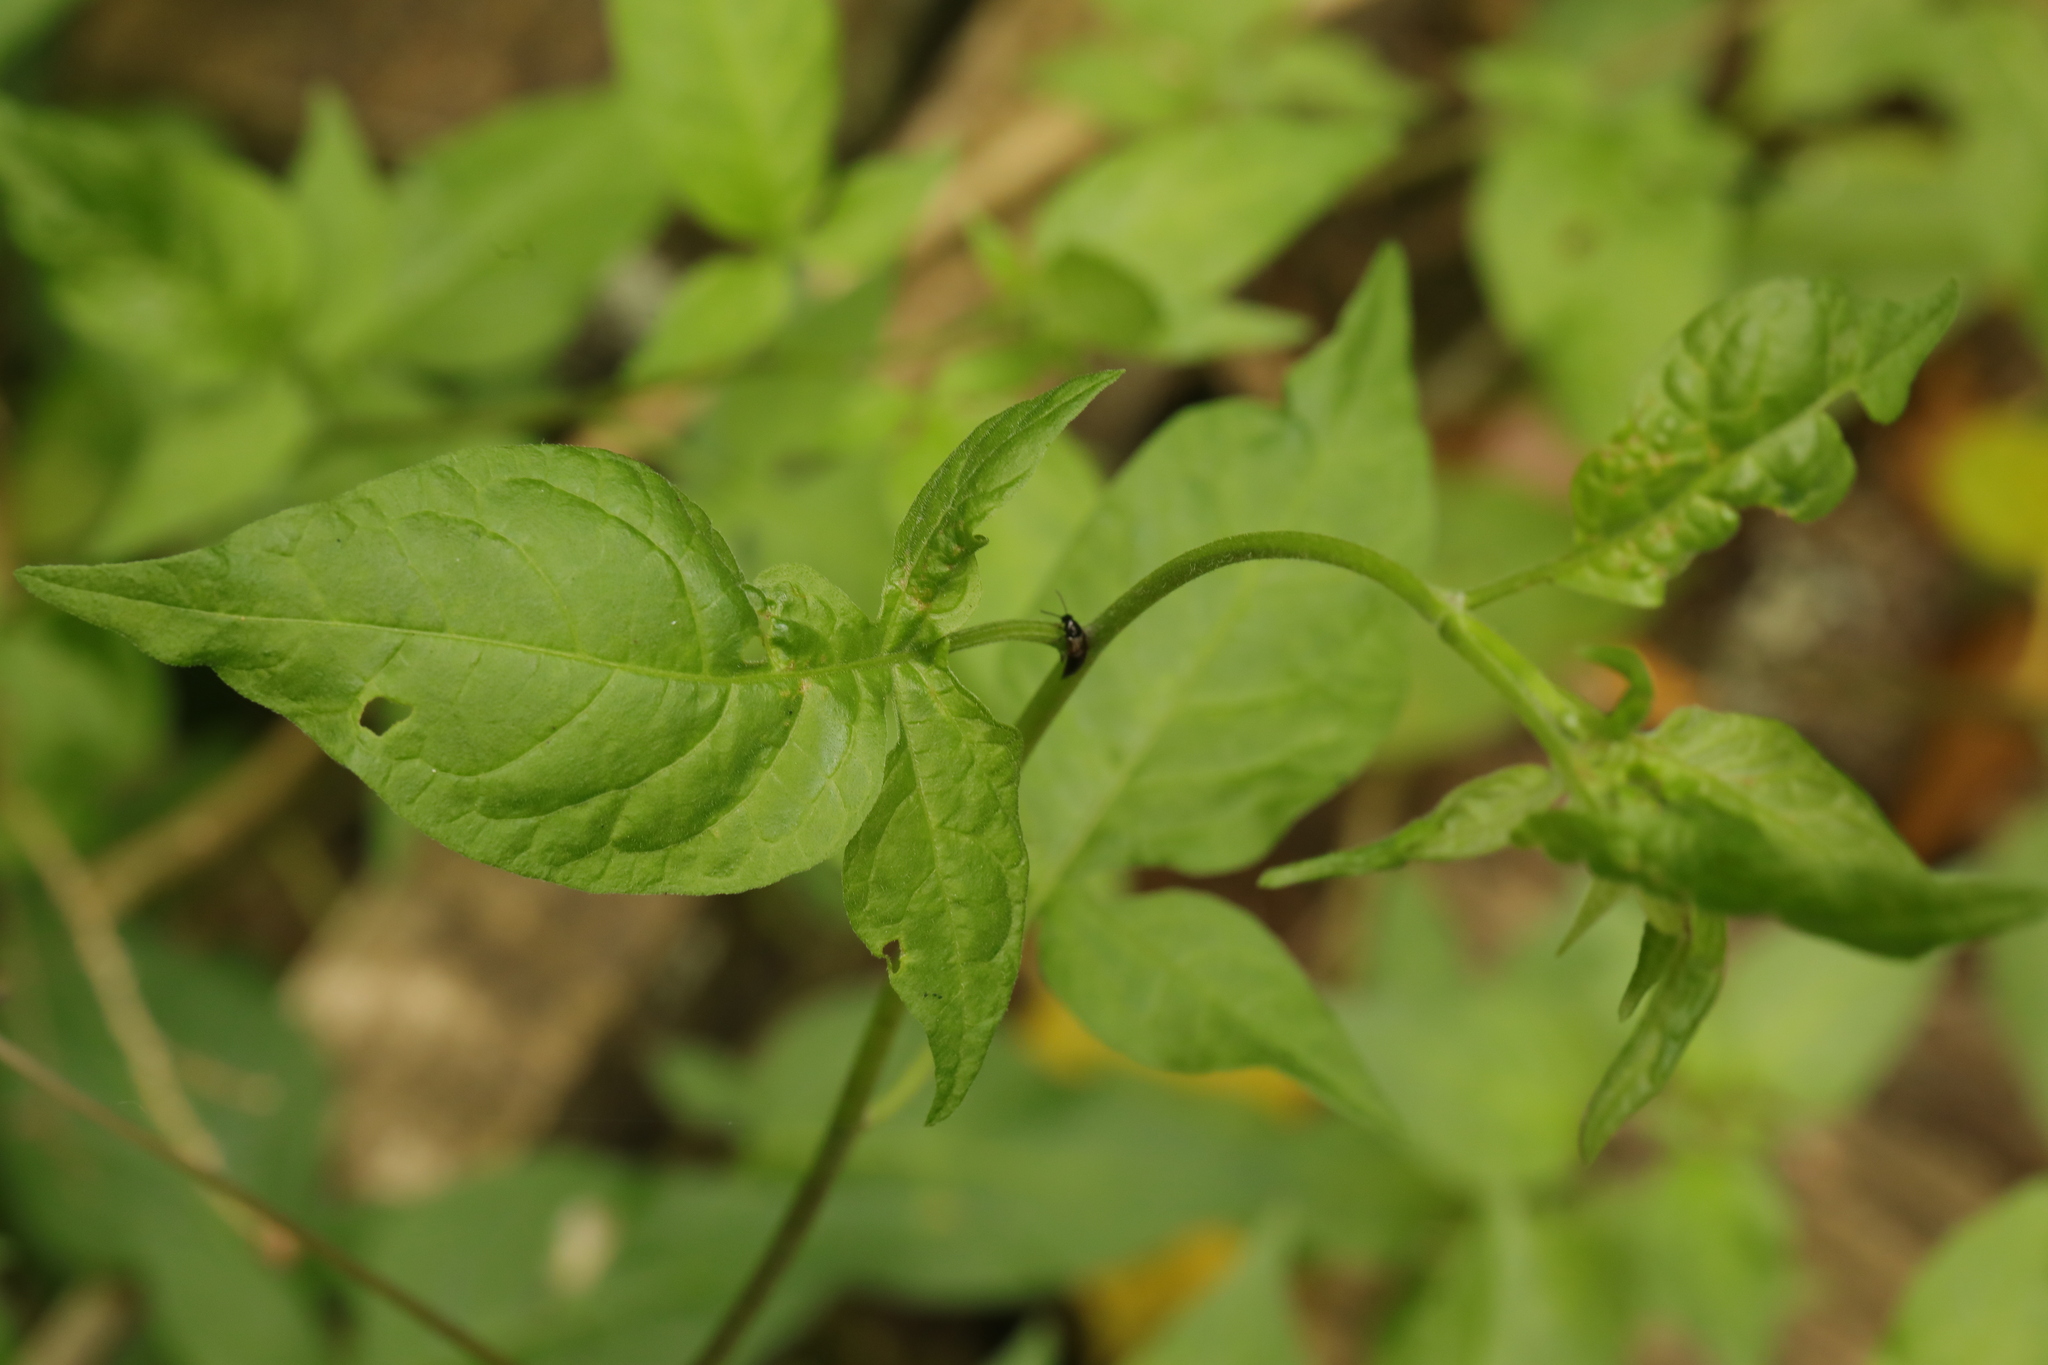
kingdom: Plantae
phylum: Tracheophyta
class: Magnoliopsida
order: Solanales
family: Solanaceae
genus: Solanum
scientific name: Solanum dulcamara
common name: Climbing nightshade
